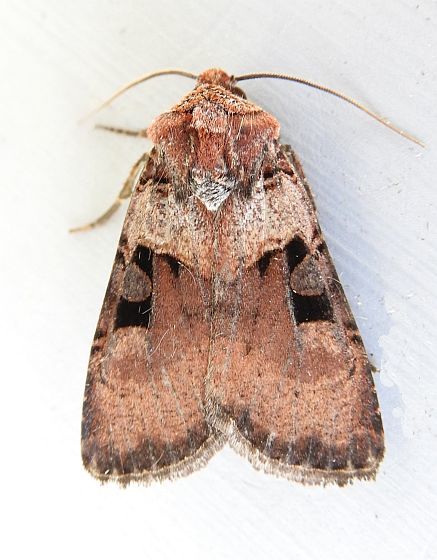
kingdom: Animalia
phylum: Arthropoda
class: Insecta
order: Lepidoptera
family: Noctuidae
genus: Richia
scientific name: Richia serano
